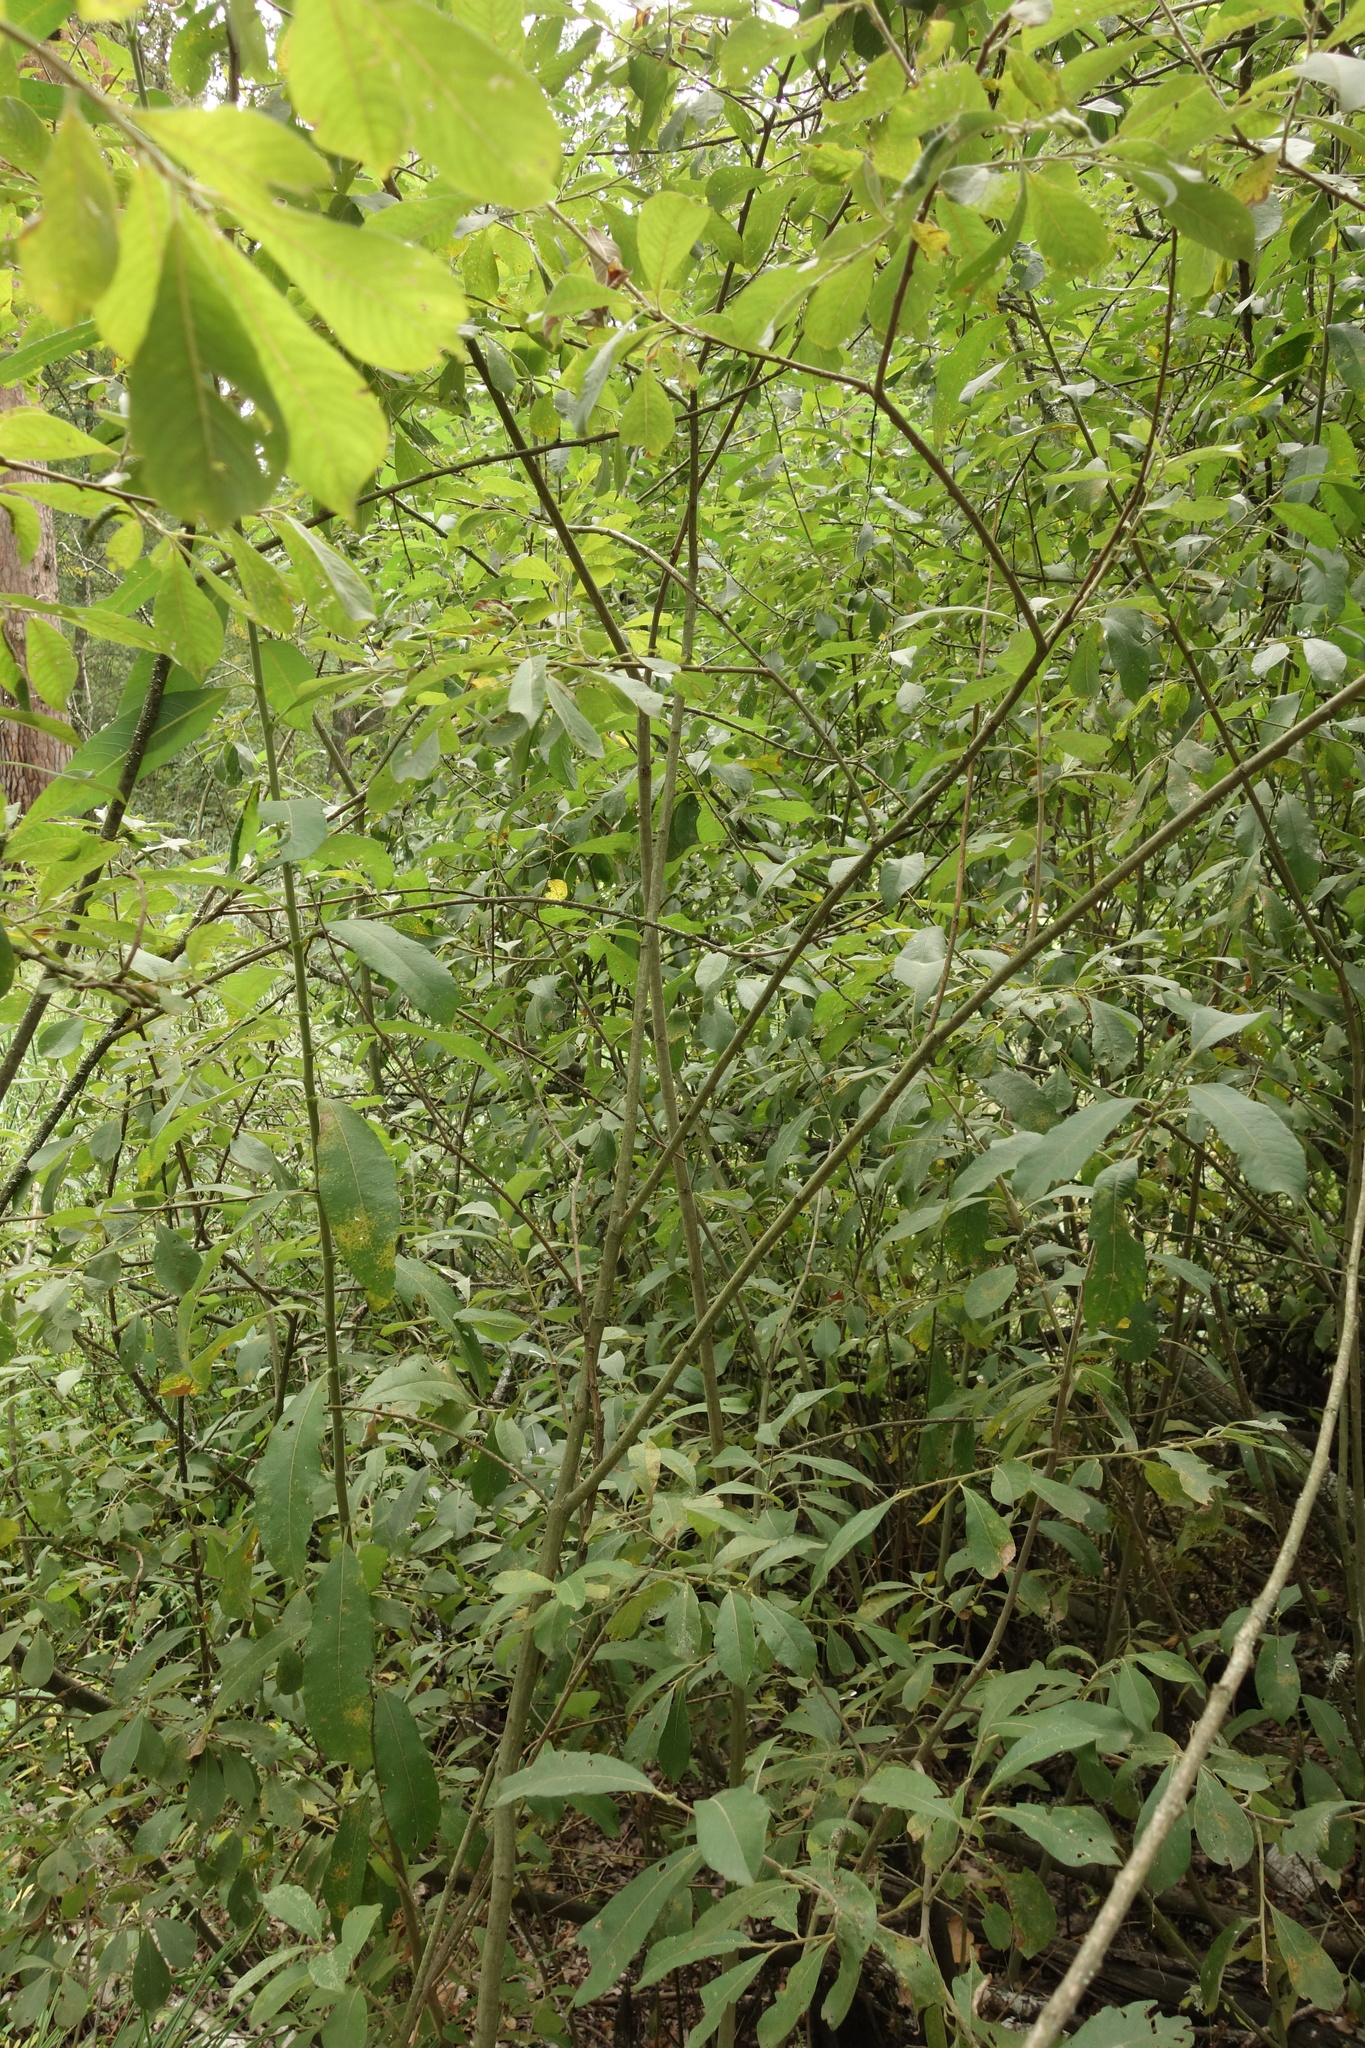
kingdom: Plantae
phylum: Tracheophyta
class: Magnoliopsida
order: Malpighiales
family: Salicaceae
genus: Salix
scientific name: Salix cinerea
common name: Common sallow
